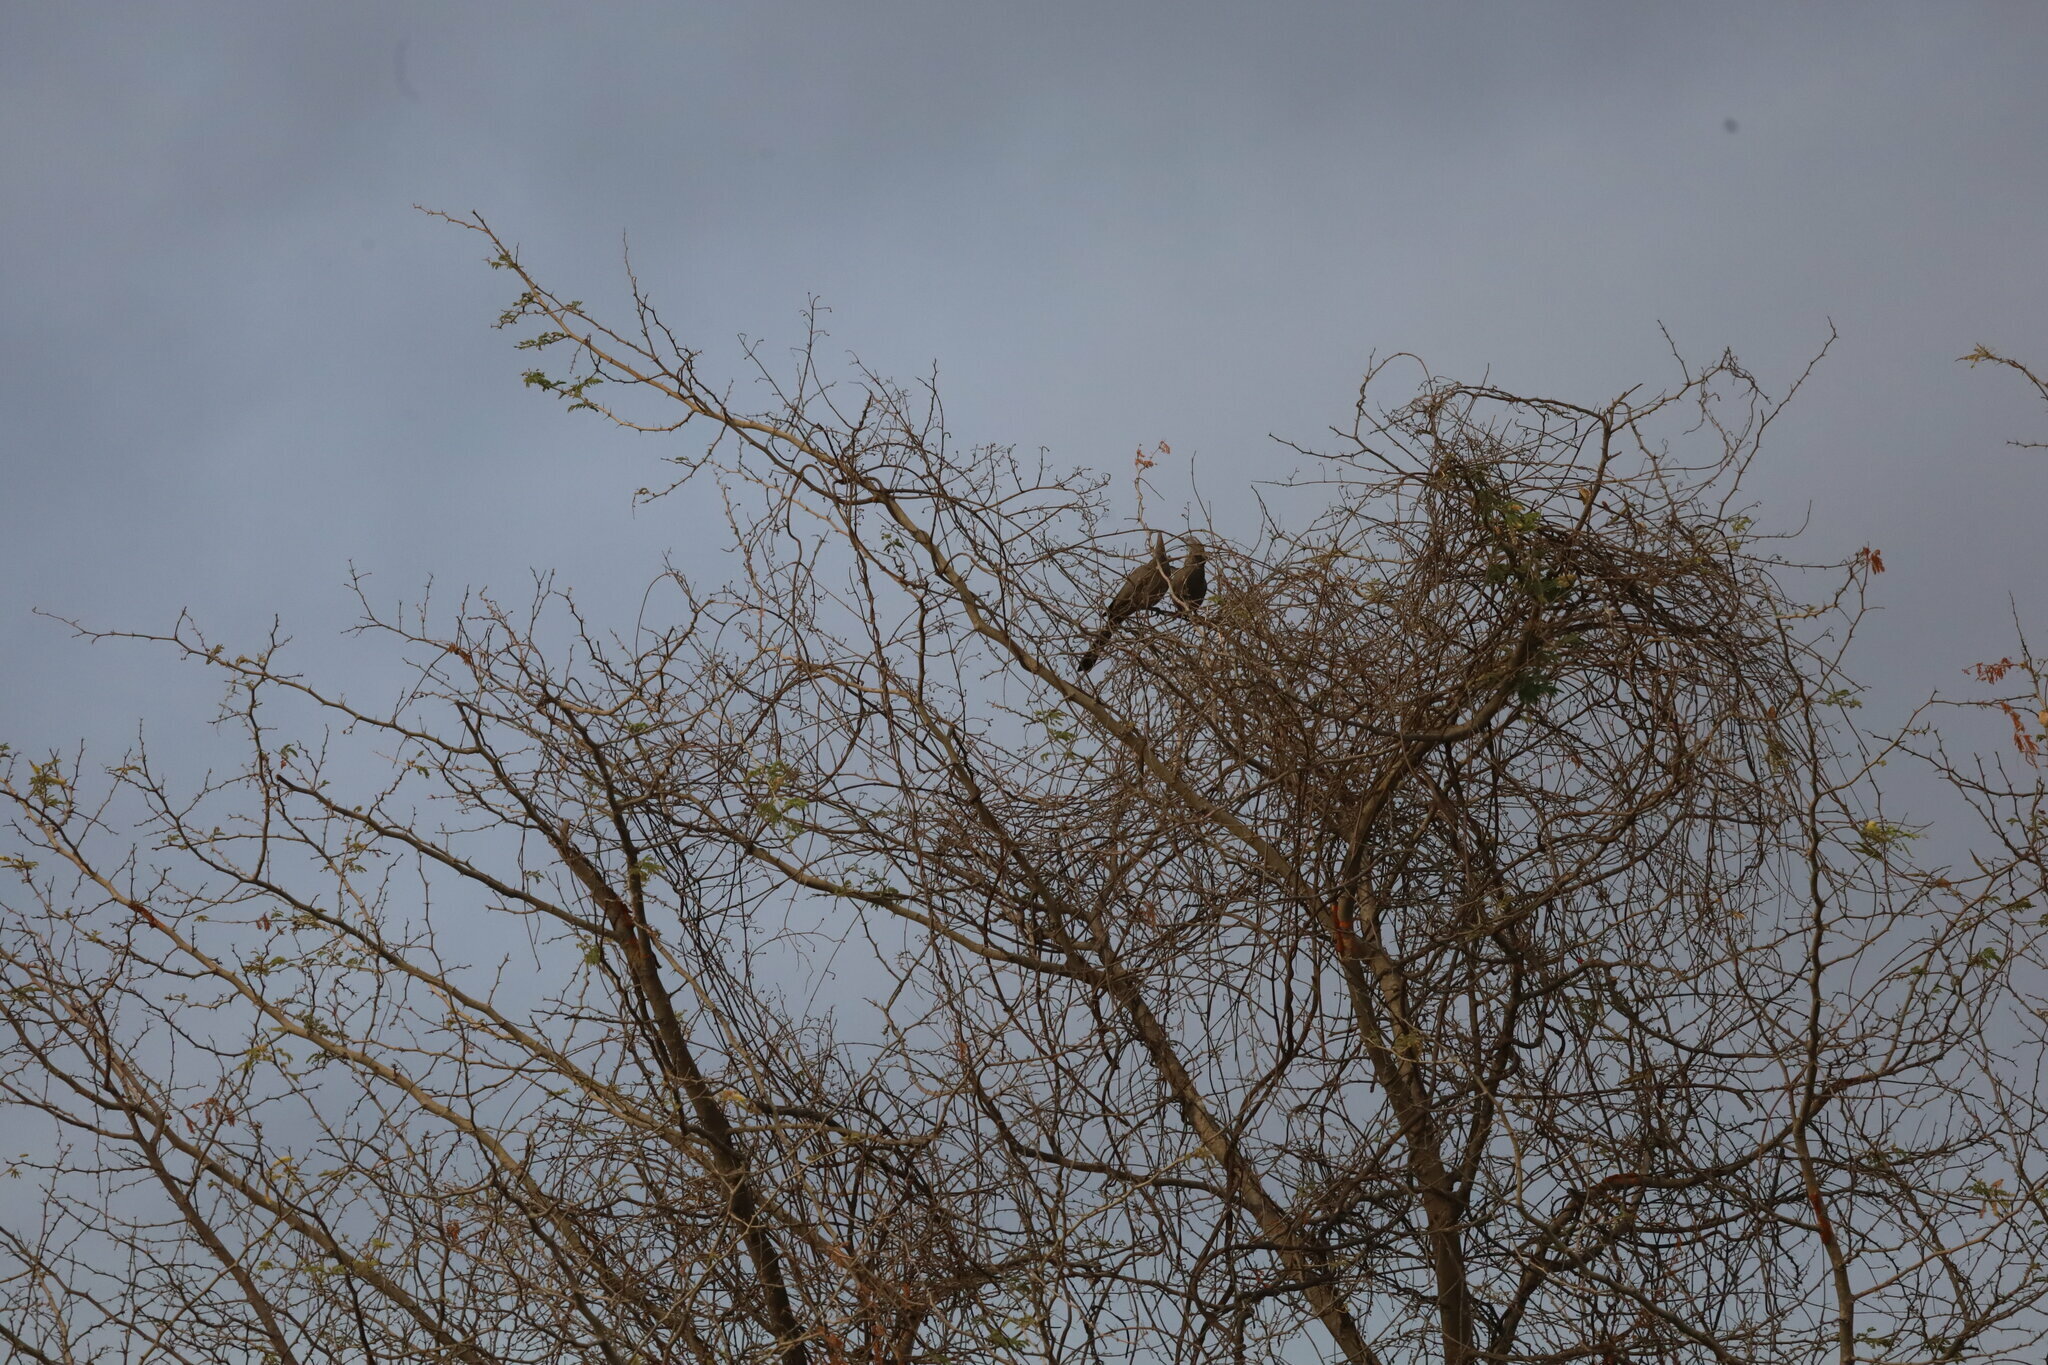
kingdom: Animalia
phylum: Chordata
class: Aves
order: Musophagiformes
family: Musophagidae
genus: Corythaixoides
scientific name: Corythaixoides concolor
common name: Grey go-away-bird
